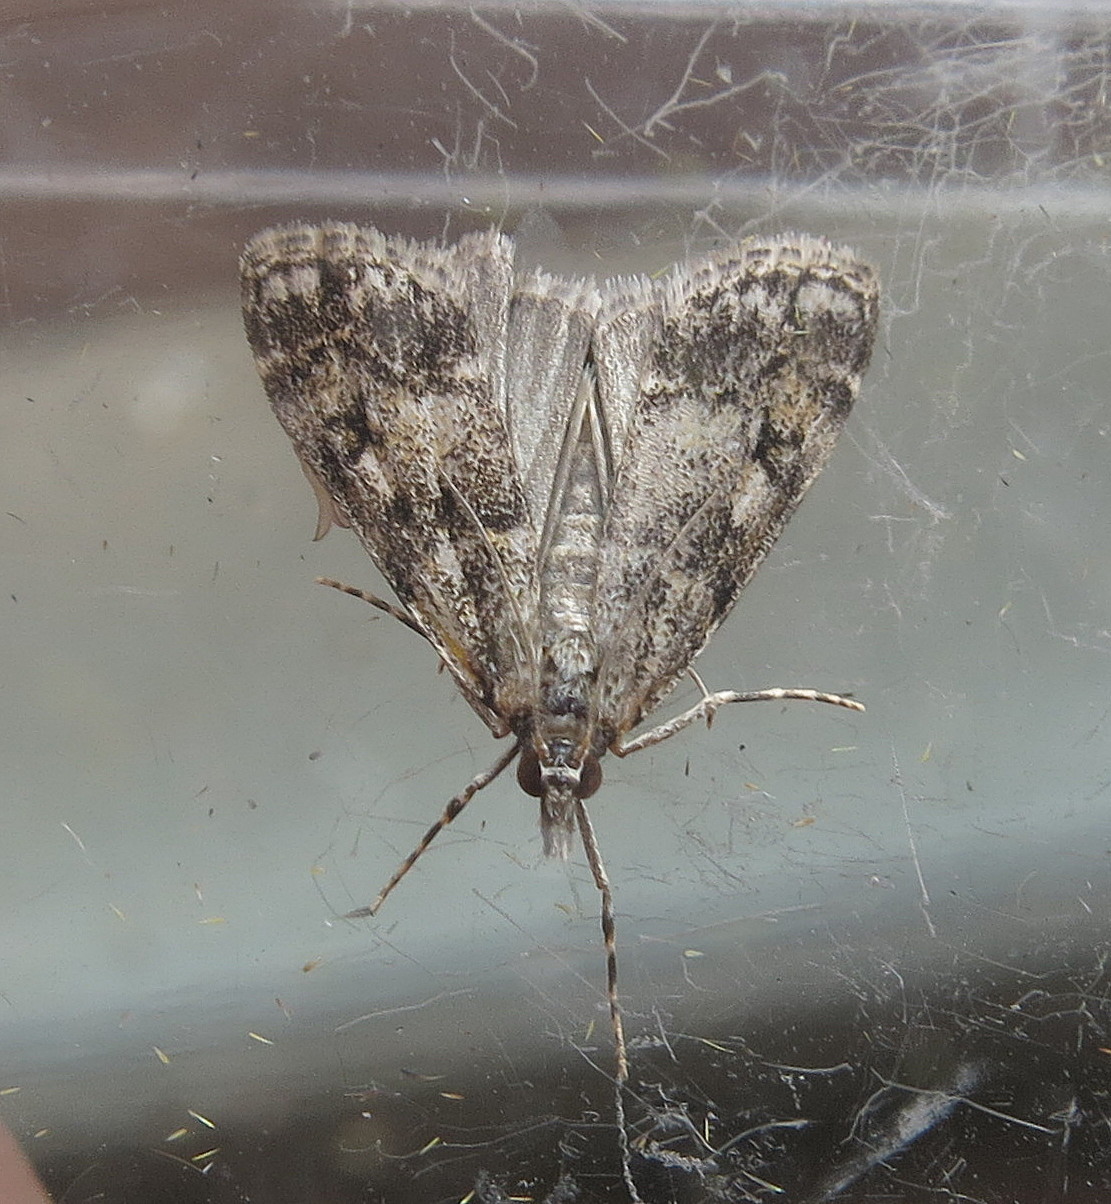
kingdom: Animalia
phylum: Arthropoda
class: Insecta
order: Lepidoptera
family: Crambidae
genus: Eudonia
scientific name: Eudonia lacustrata
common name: Little grey
